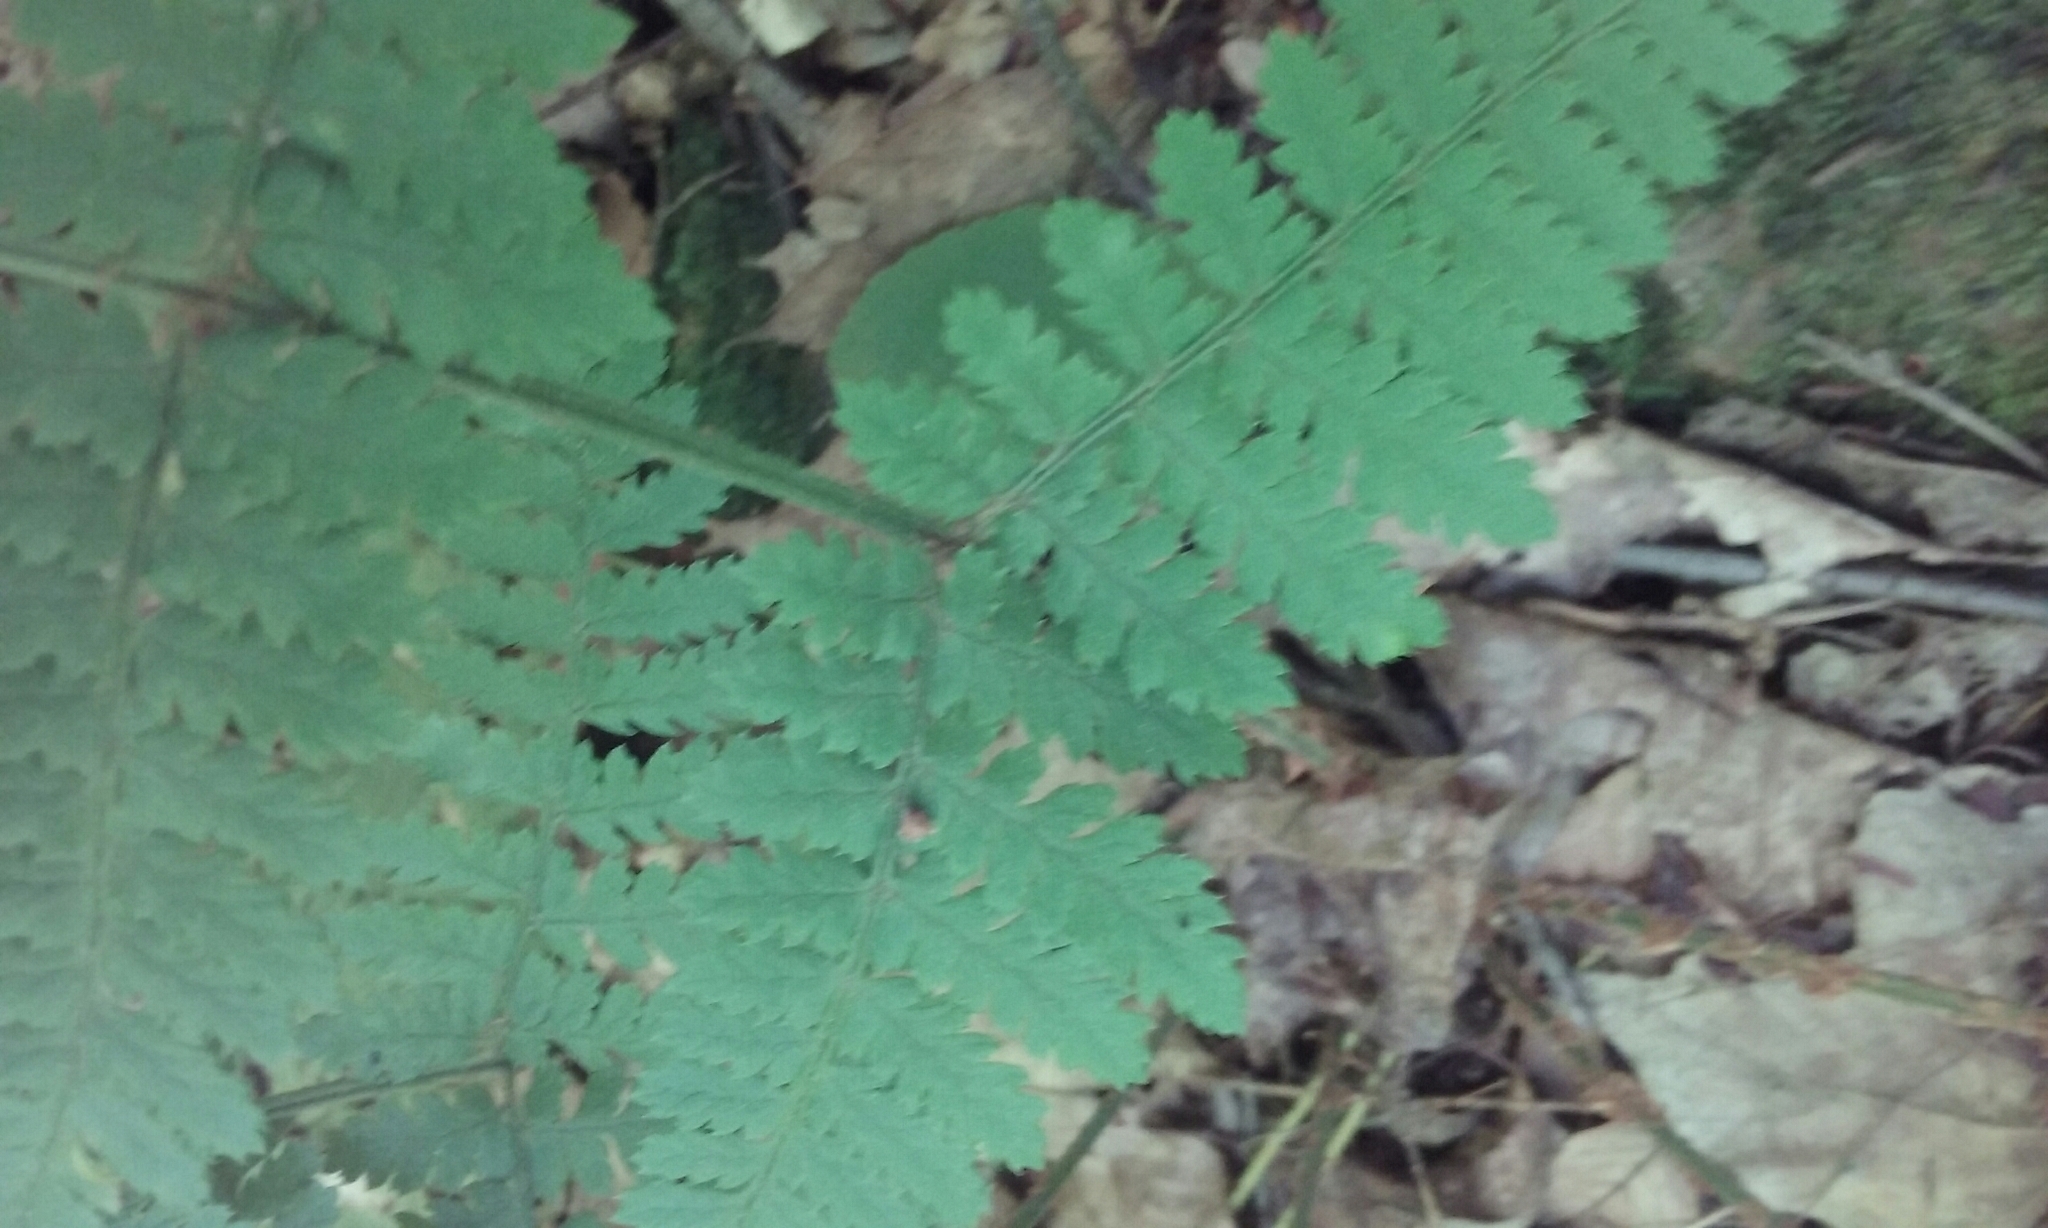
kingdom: Plantae
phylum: Tracheophyta
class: Polypodiopsida
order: Polypodiales
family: Dryopteridaceae
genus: Dryopteris
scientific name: Dryopteris intermedia
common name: Evergreen wood fern
